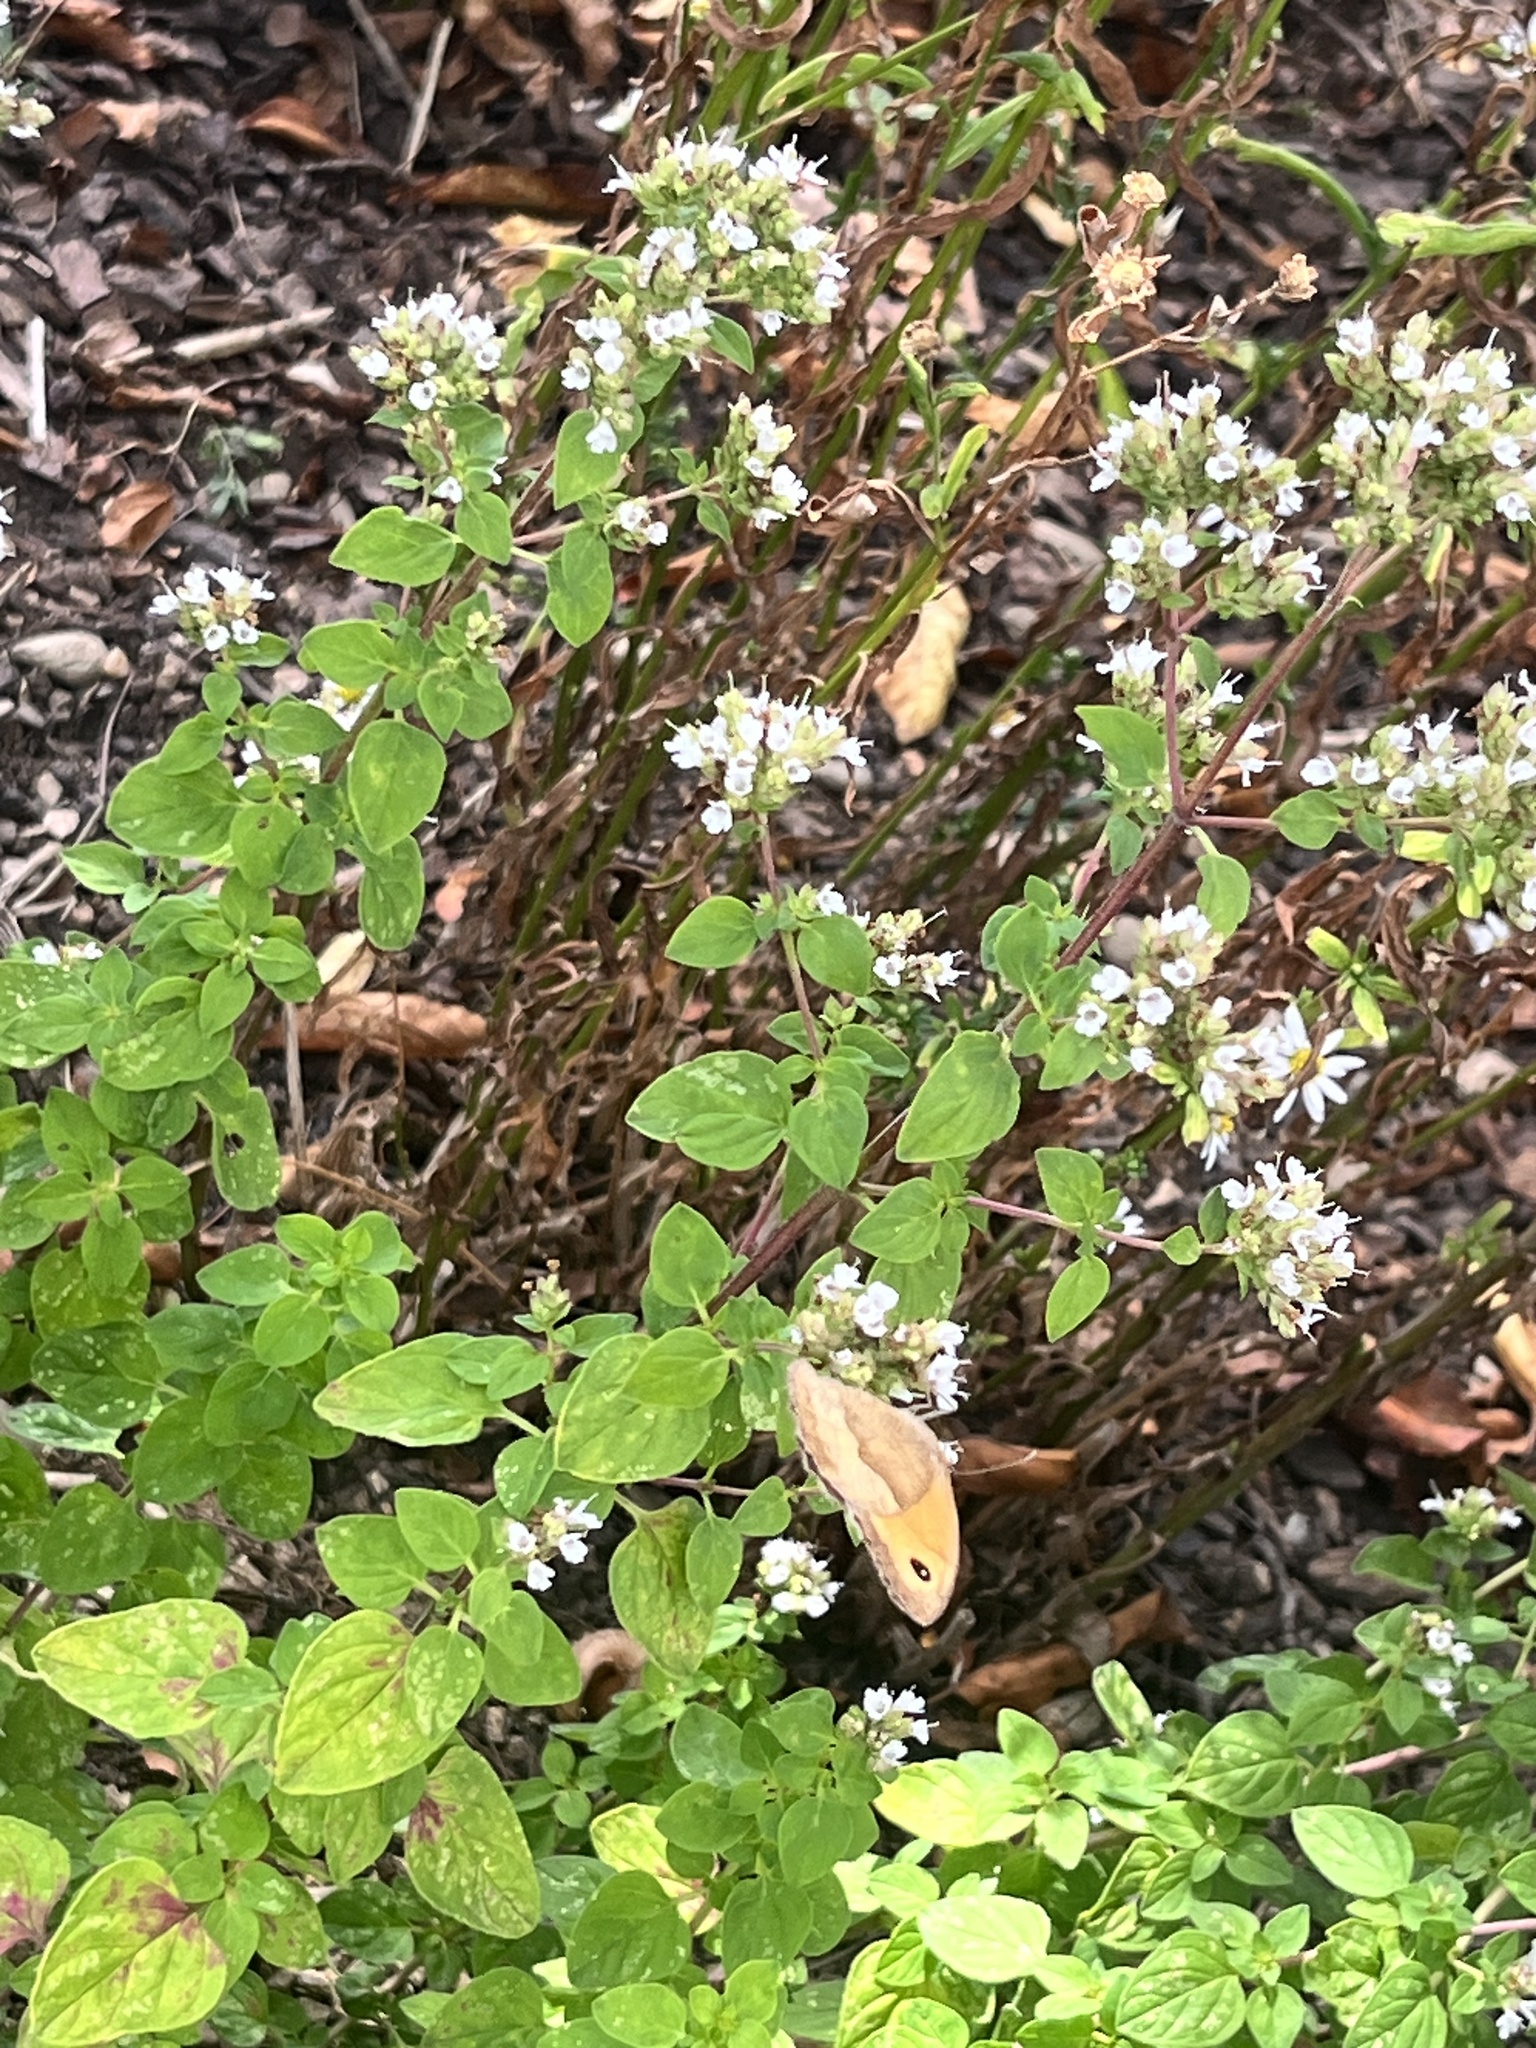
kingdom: Animalia
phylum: Arthropoda
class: Insecta
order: Lepidoptera
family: Nymphalidae
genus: Maniola
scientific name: Maniola jurtina
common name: Meadow brown
